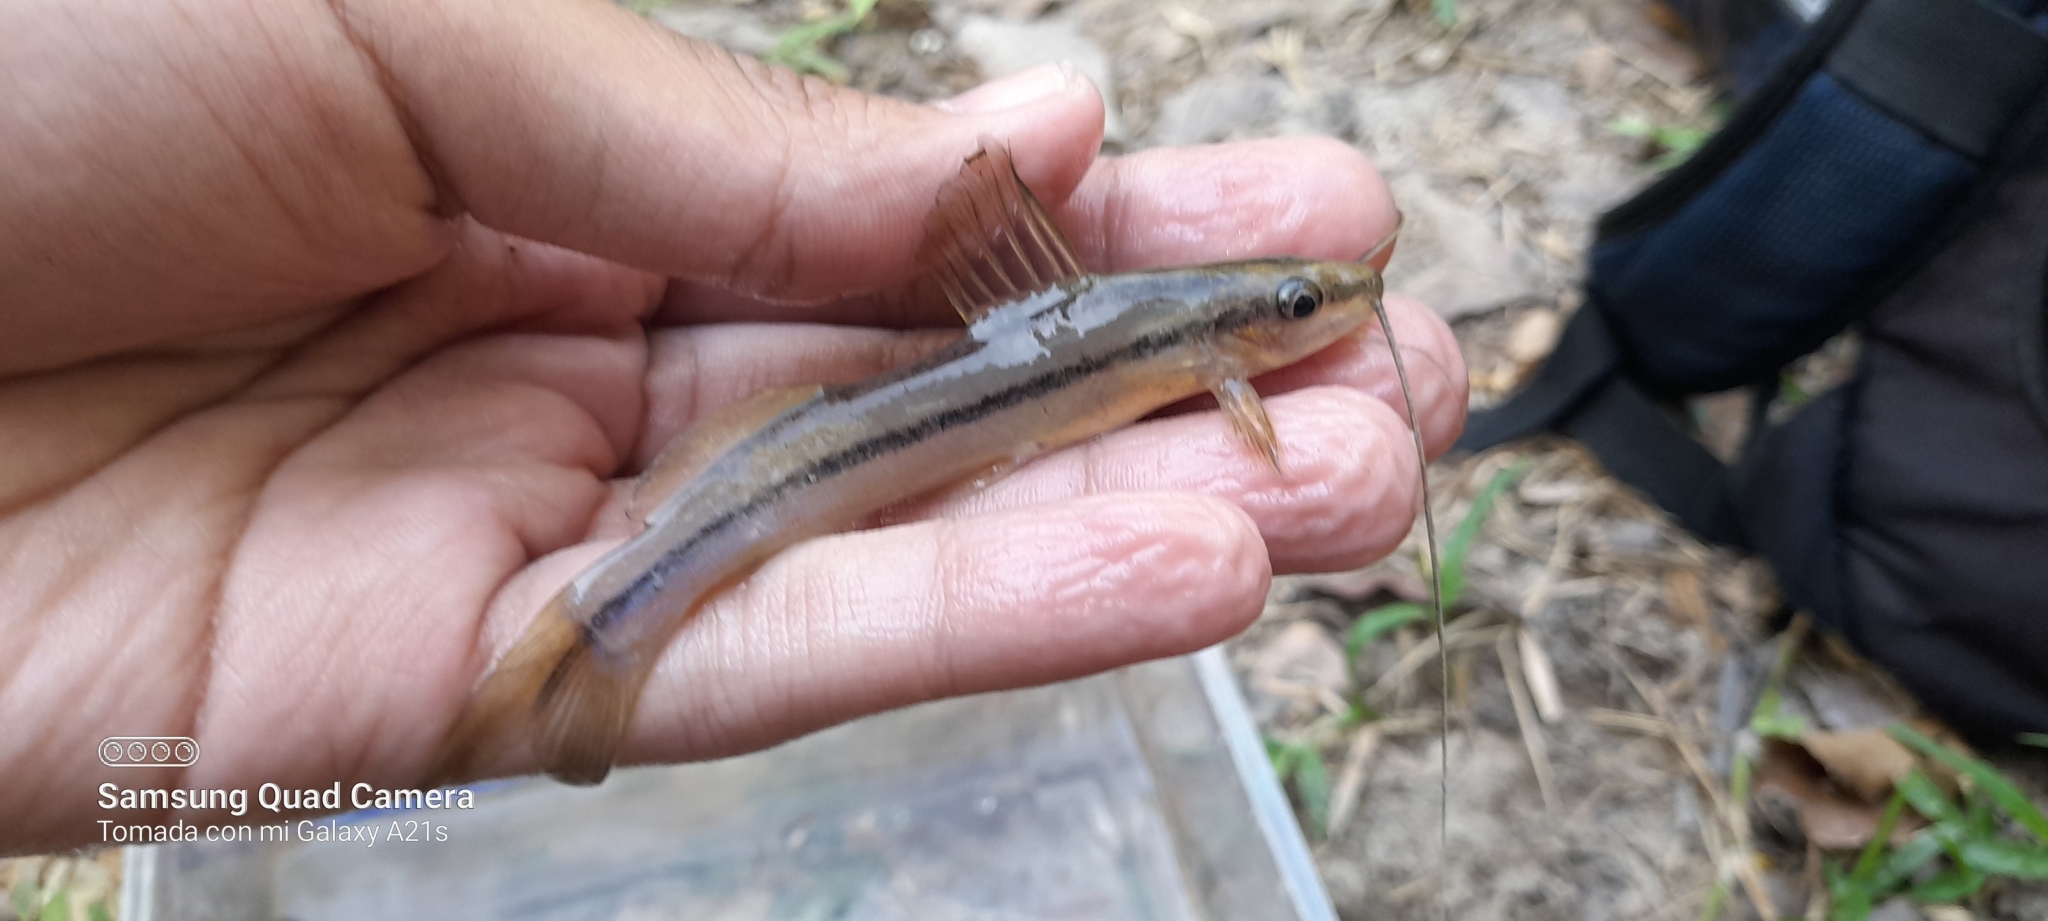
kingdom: Animalia
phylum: Chordata
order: Siluriformes
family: Heptapteridae
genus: Pimelodella
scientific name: Pimelodella chagresi
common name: Catfish
